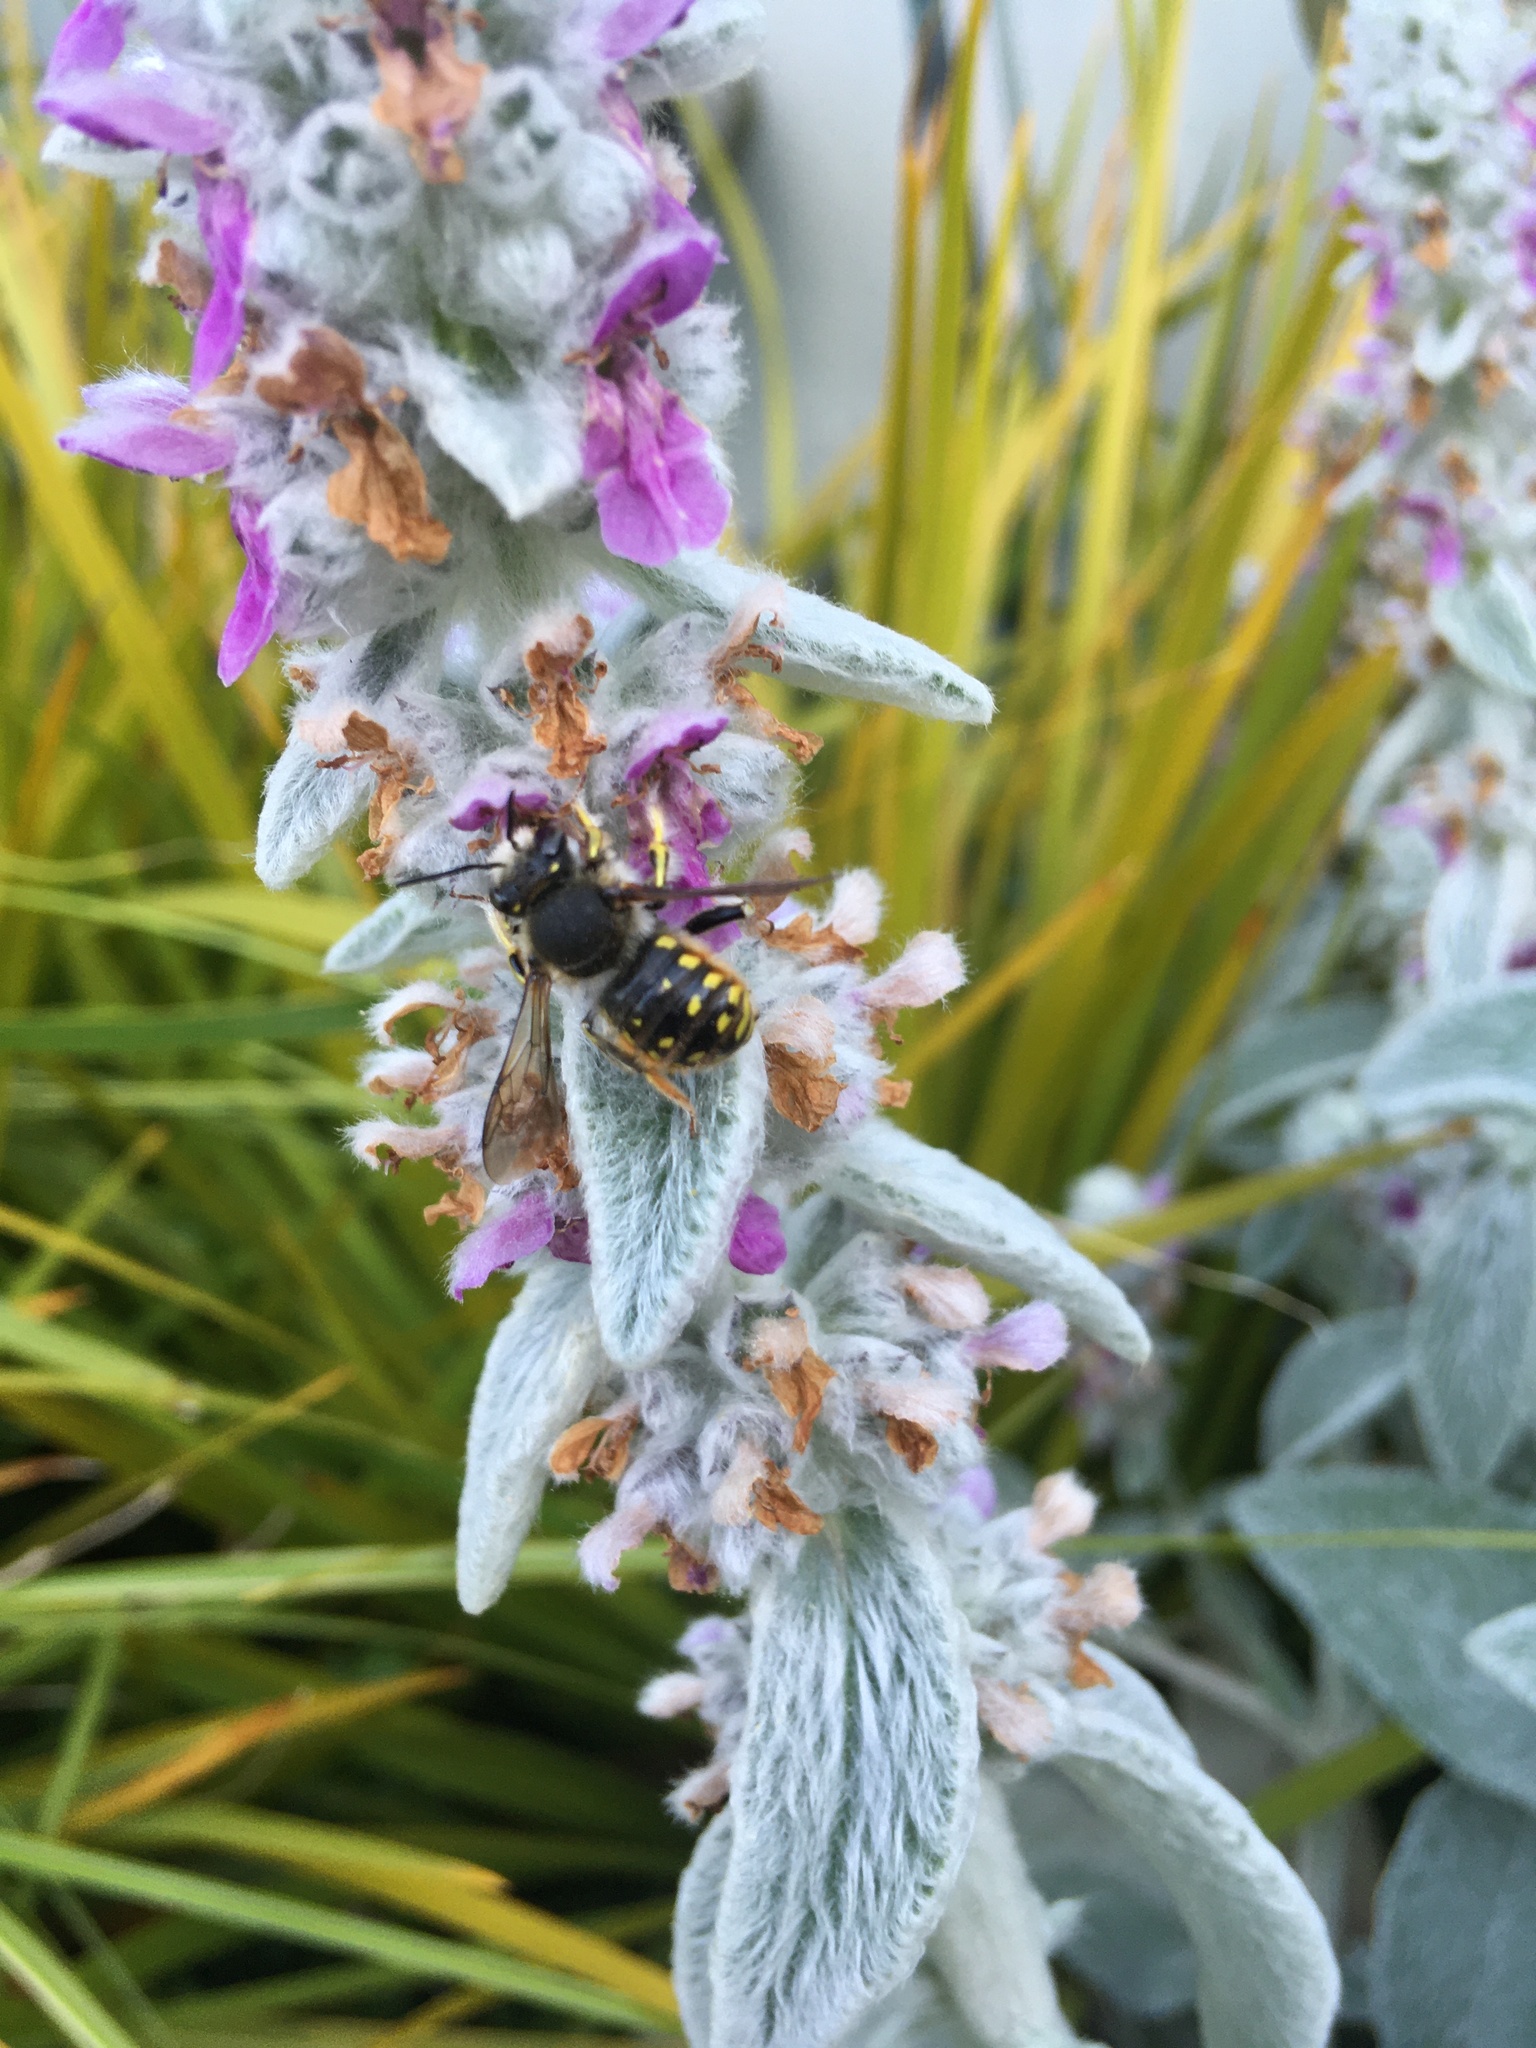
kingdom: Animalia
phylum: Arthropoda
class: Insecta
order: Hymenoptera
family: Megachilidae
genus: Anthidium
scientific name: Anthidium manicatum
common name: Wool carder bee
